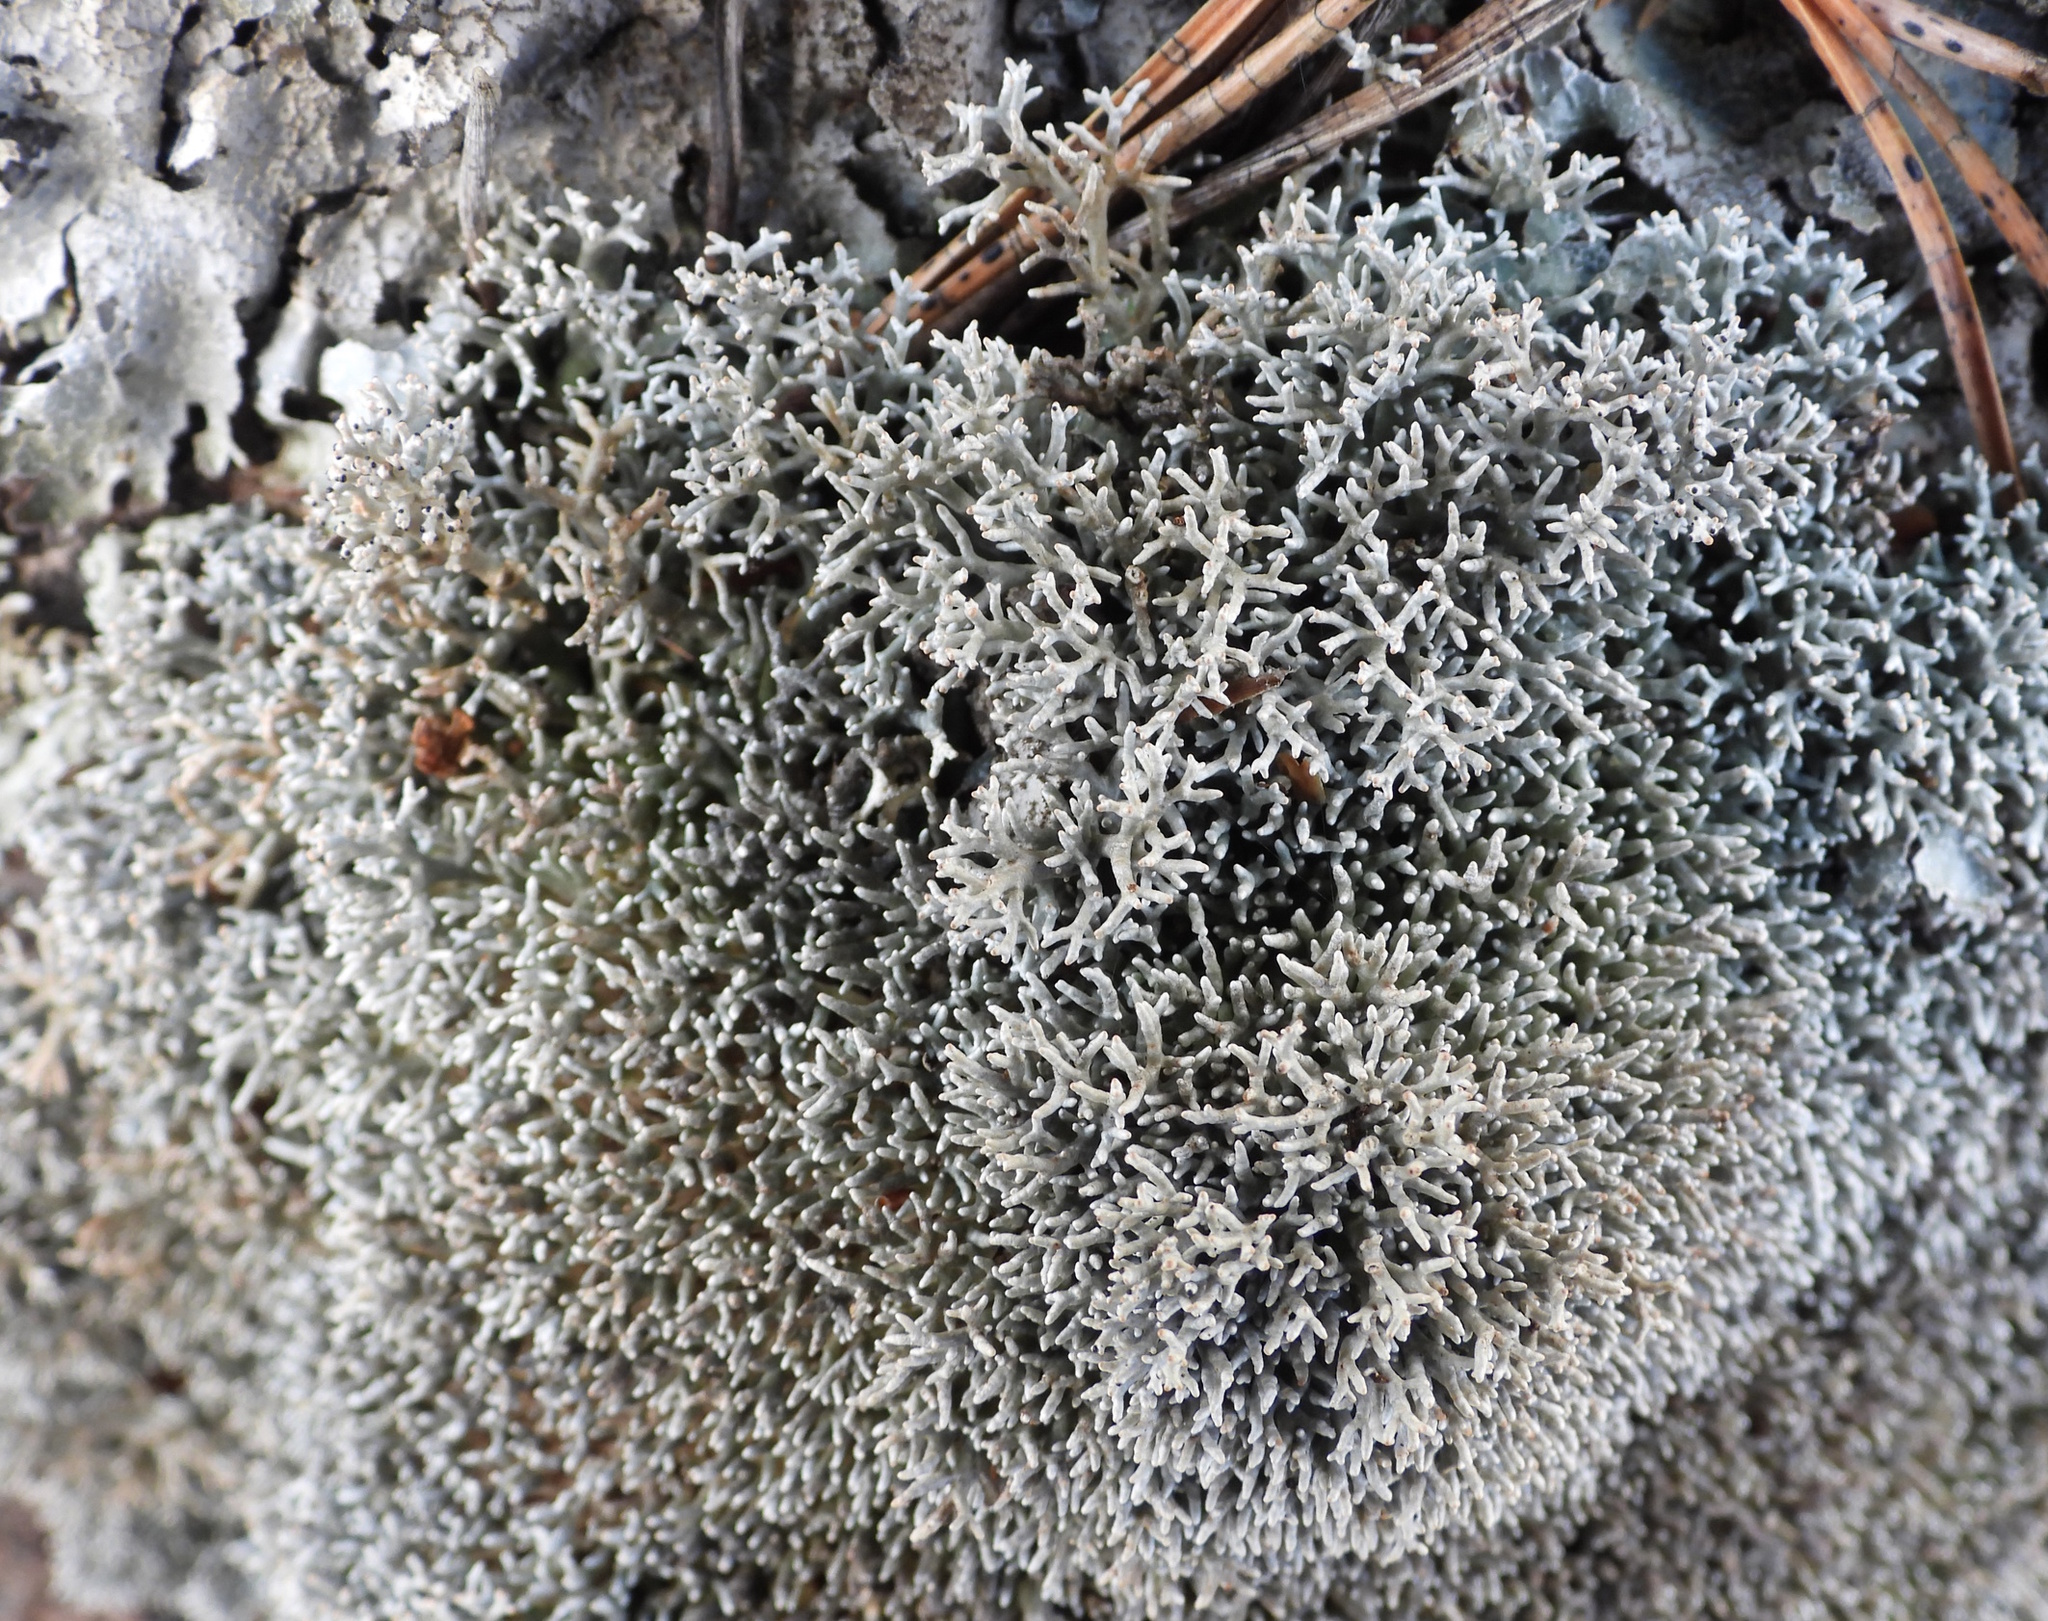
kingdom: Fungi
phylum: Ascomycota
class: Lecanoromycetes
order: Lecanorales
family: Sphaerophoraceae
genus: Sphaerophorus
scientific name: Sphaerophorus fragilis
